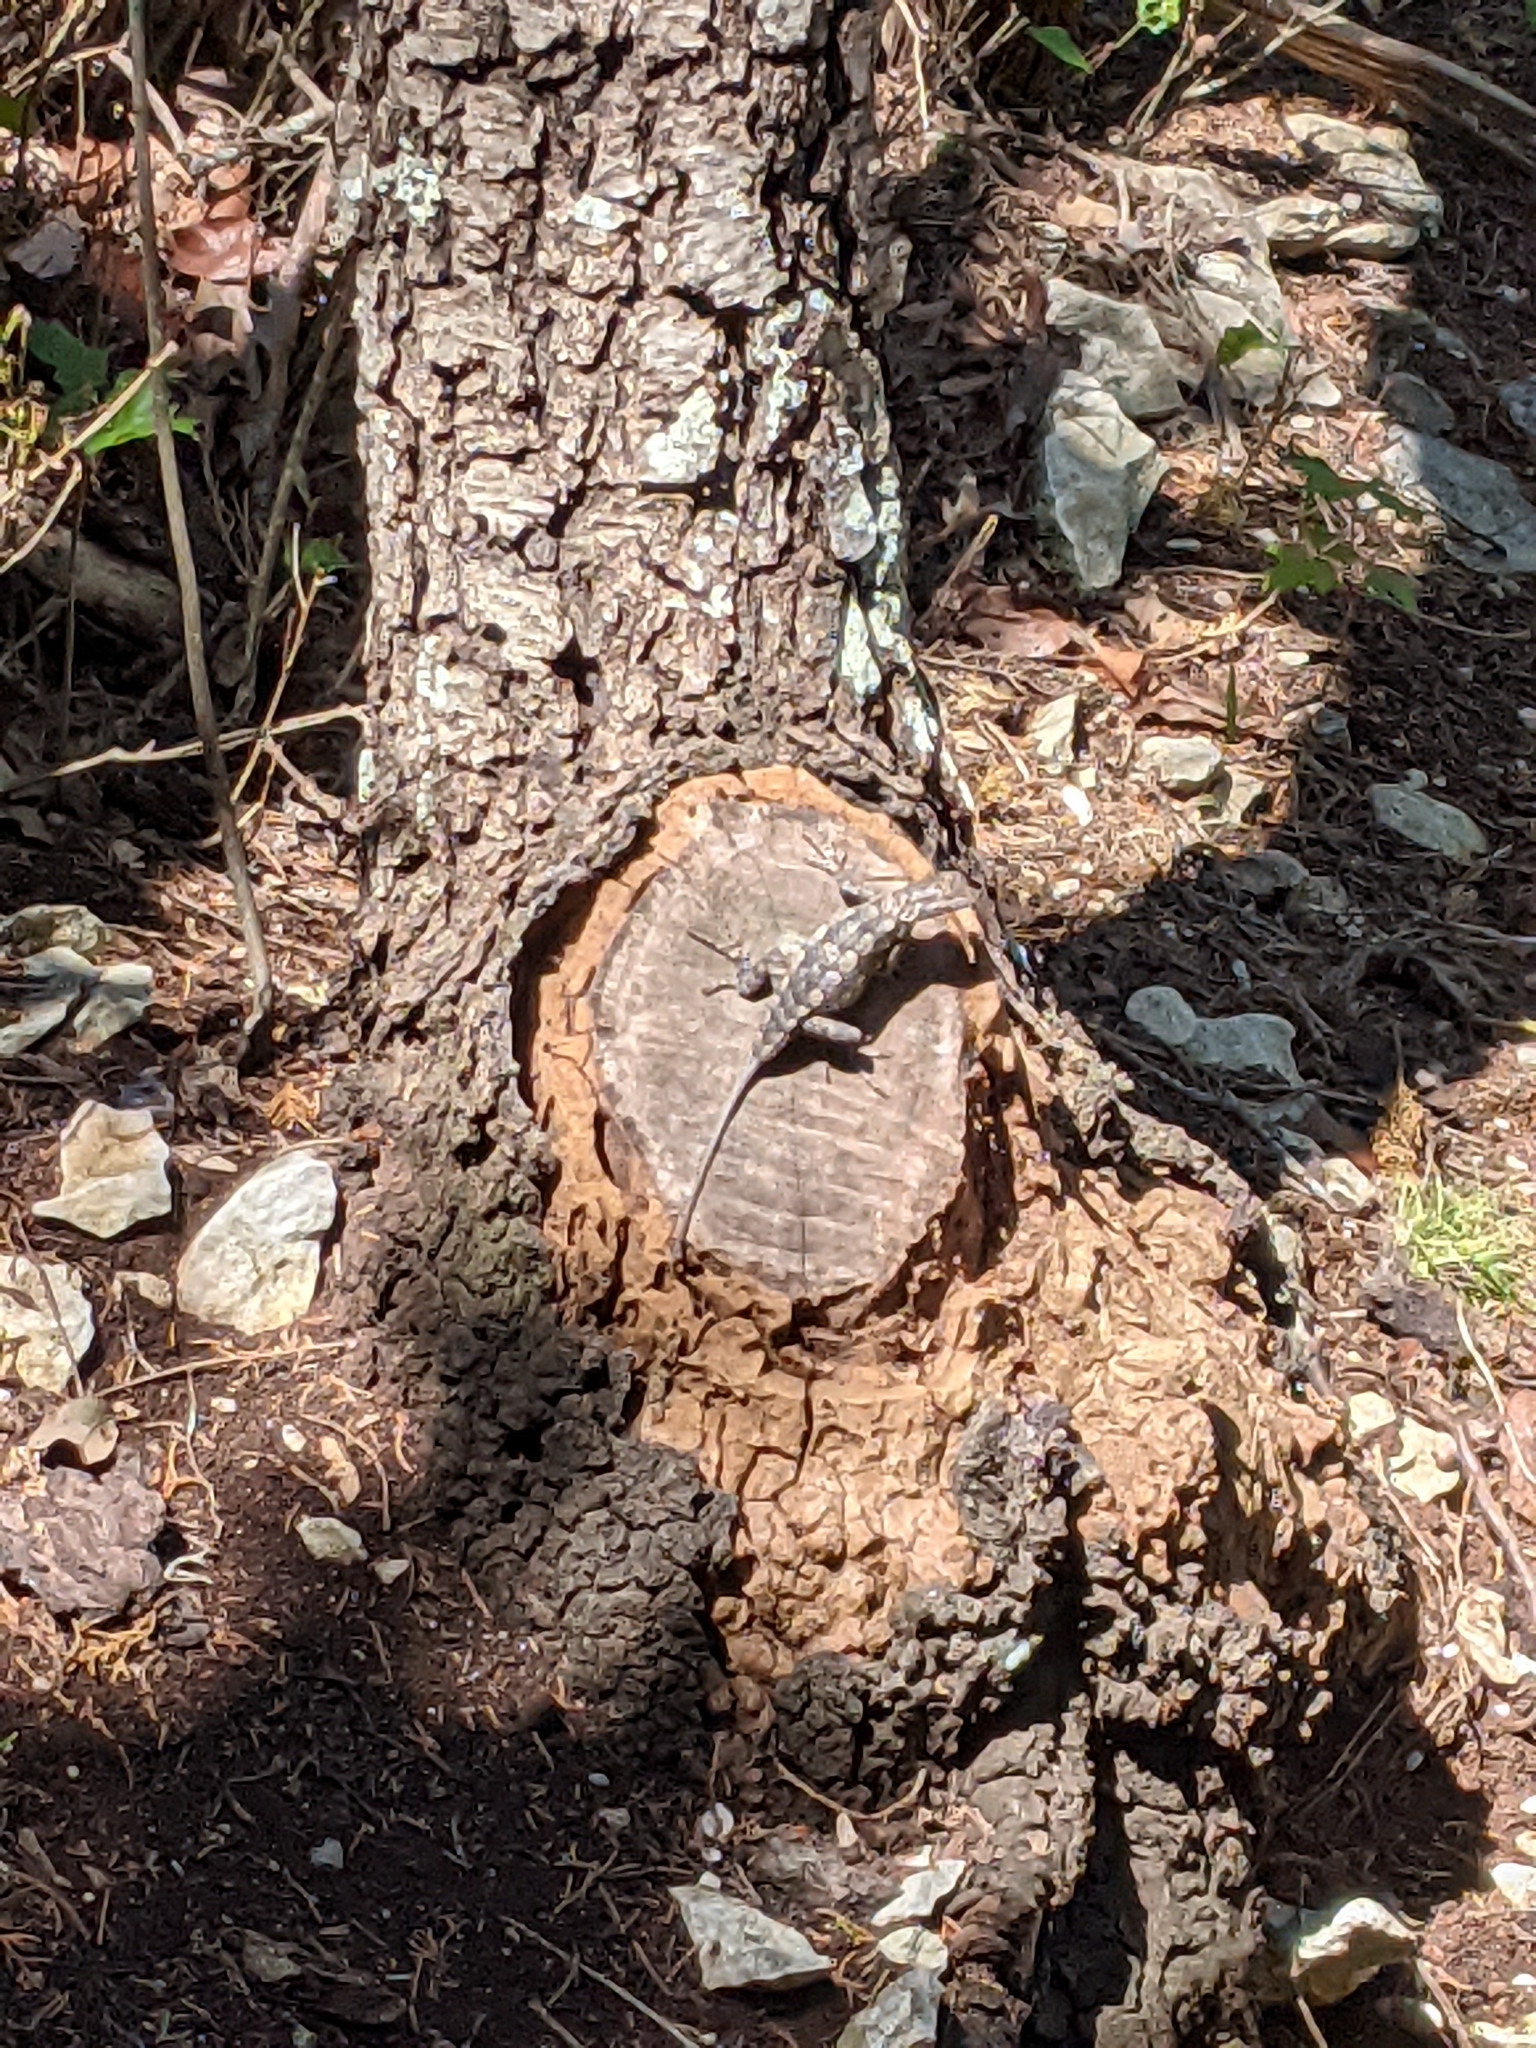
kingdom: Animalia
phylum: Chordata
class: Squamata
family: Phrynosomatidae
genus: Sceloporus
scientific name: Sceloporus olivaceus
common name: Texas spiny lizard
